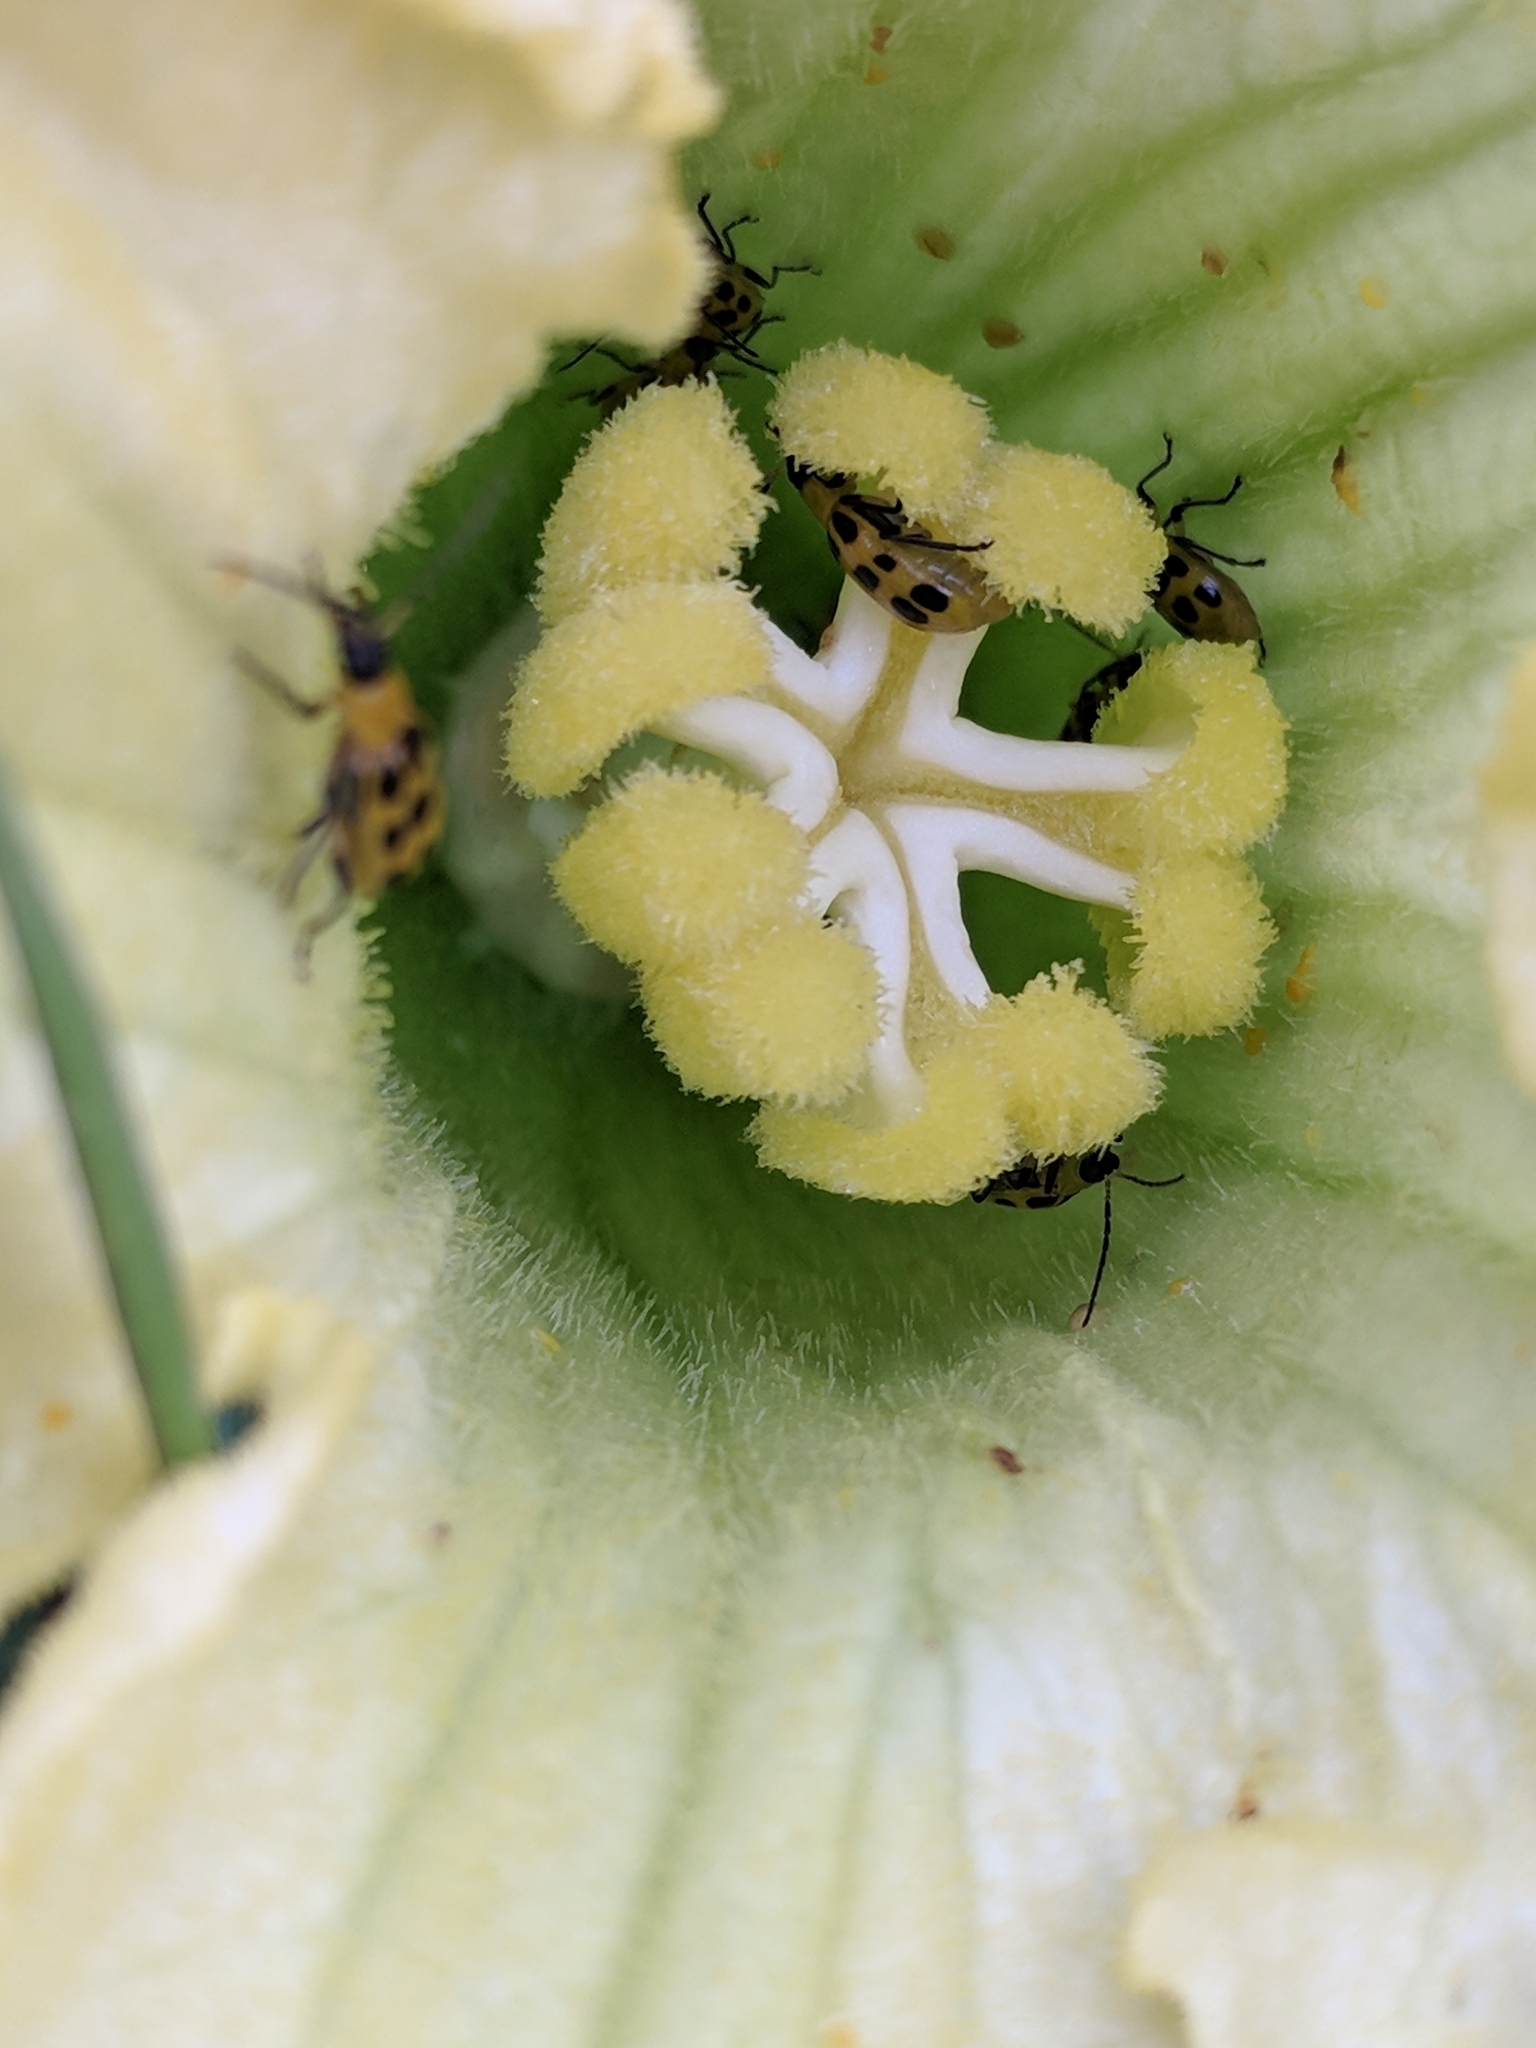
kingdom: Plantae
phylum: Tracheophyta
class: Magnoliopsida
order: Cucurbitales
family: Cucurbitaceae
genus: Cucurbita
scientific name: Cucurbita foetidissima
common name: Buffalo gourd
